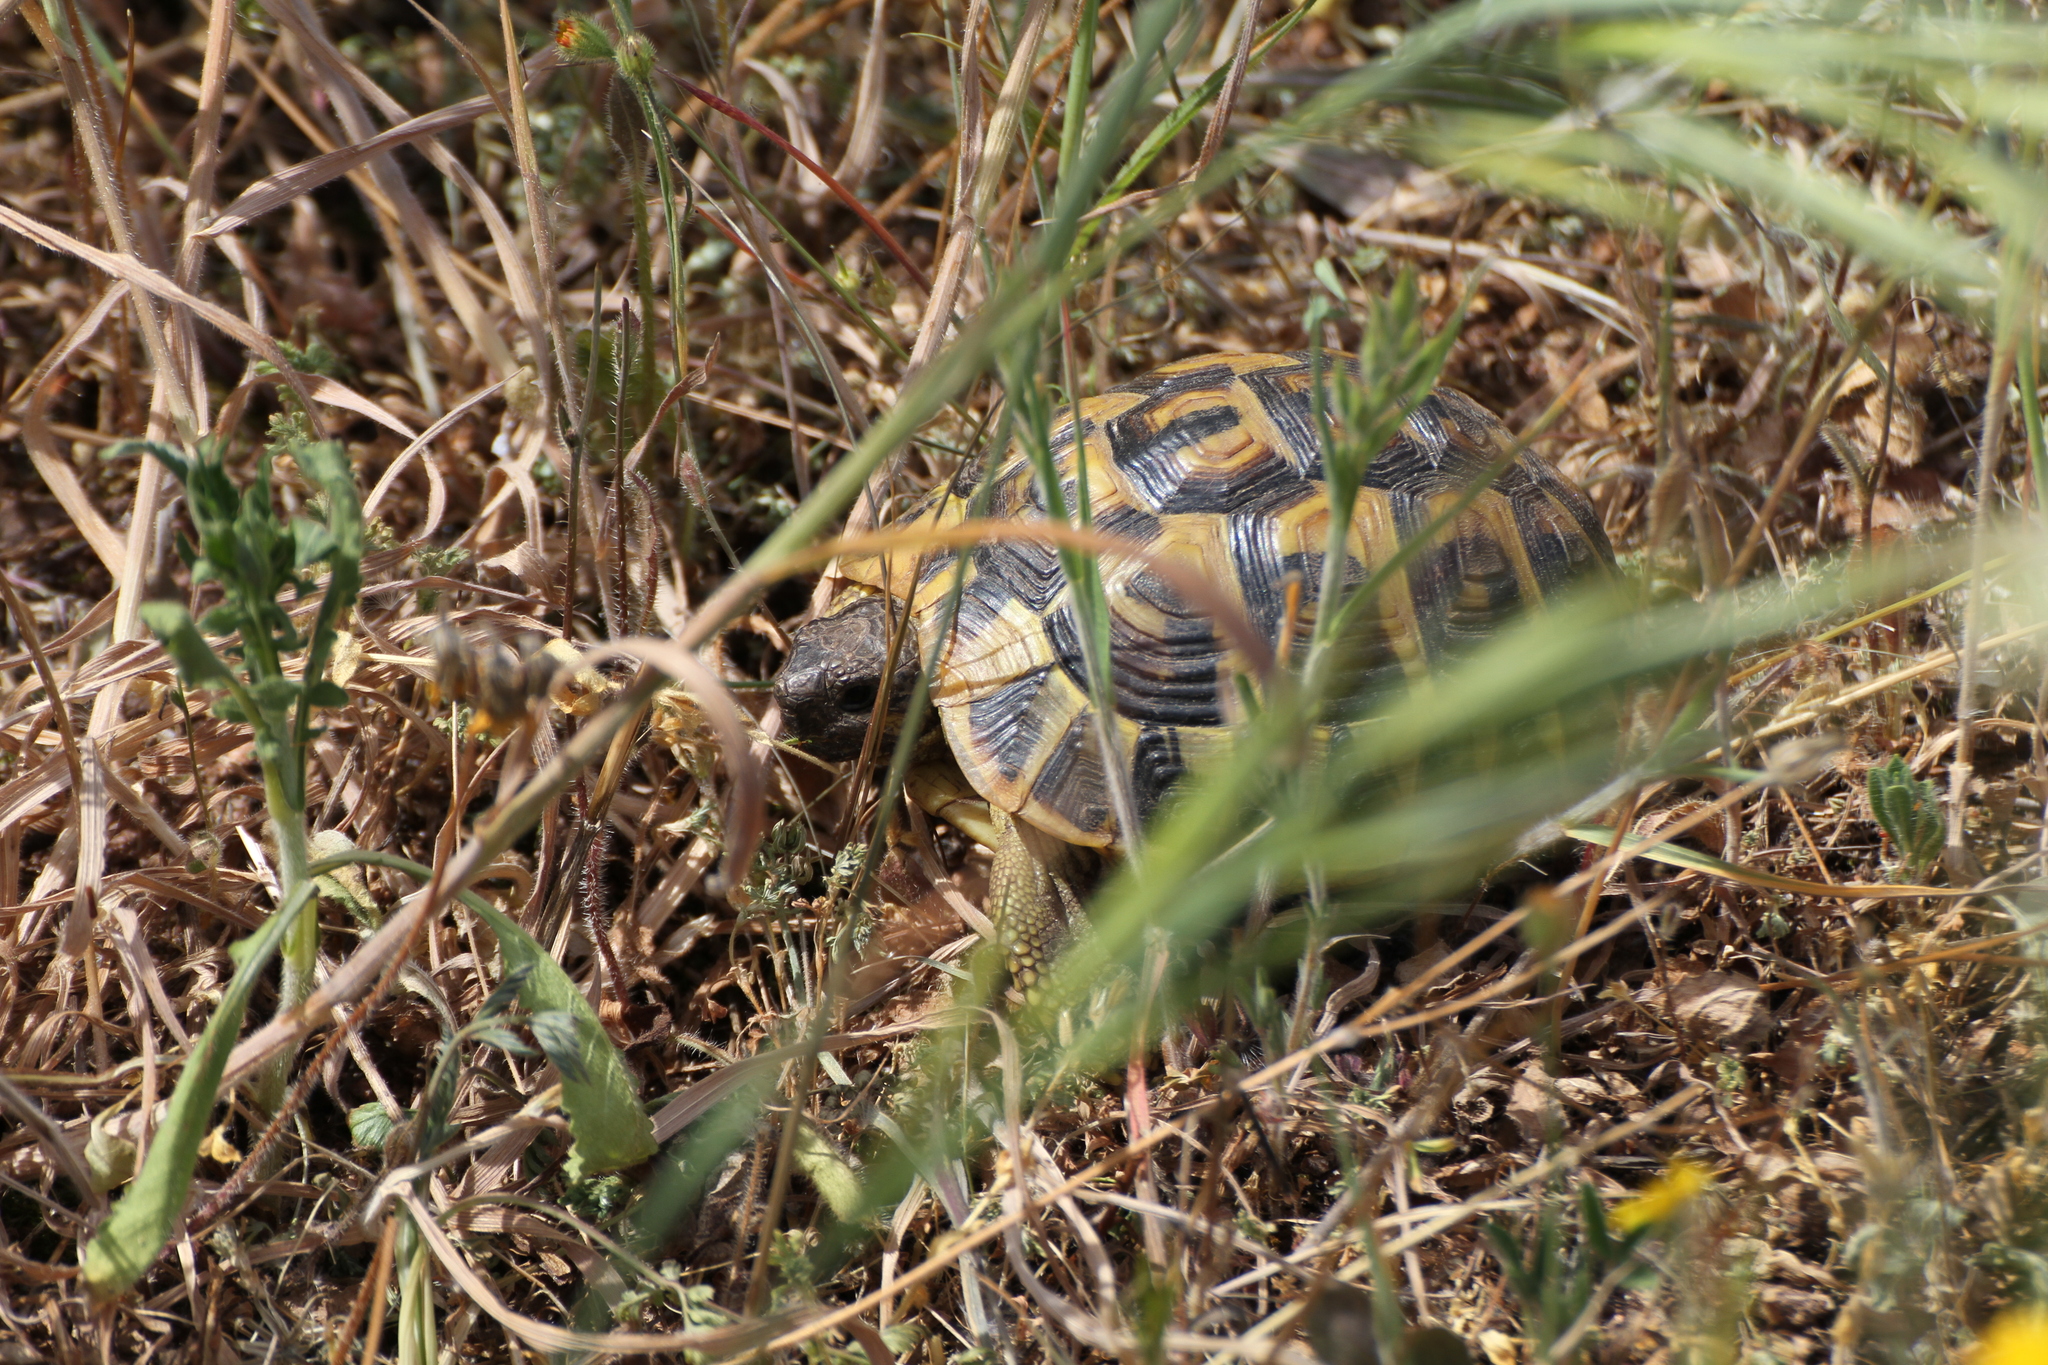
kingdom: Animalia
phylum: Chordata
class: Testudines
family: Testudinidae
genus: Testudo
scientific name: Testudo hermanni
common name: Hermann's tortoise
